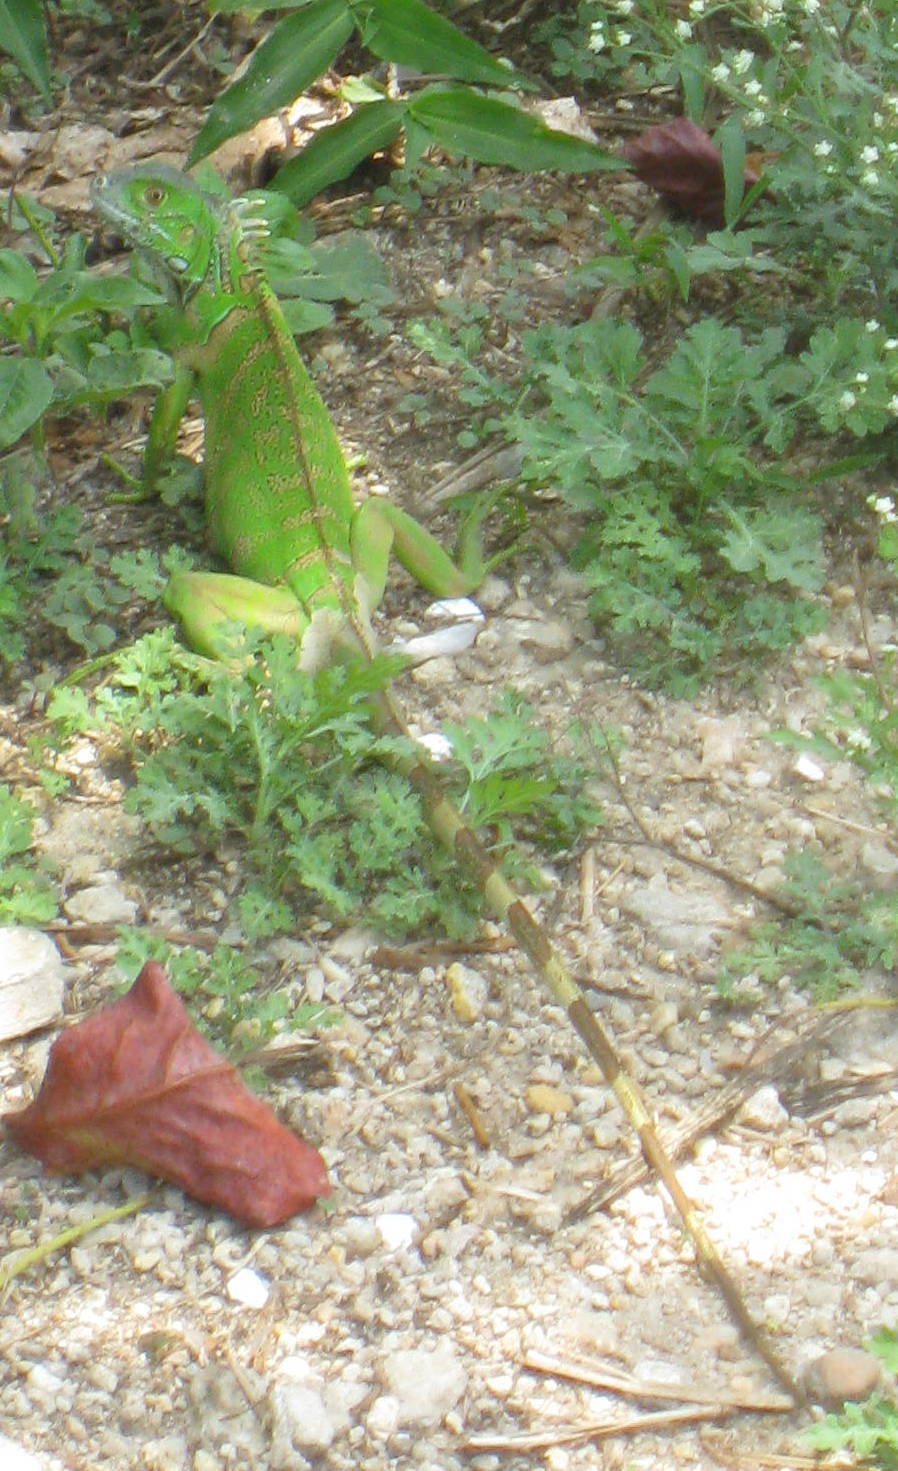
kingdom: Animalia
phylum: Chordata
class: Squamata
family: Iguanidae
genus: Iguana
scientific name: Iguana iguana
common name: Green iguana
